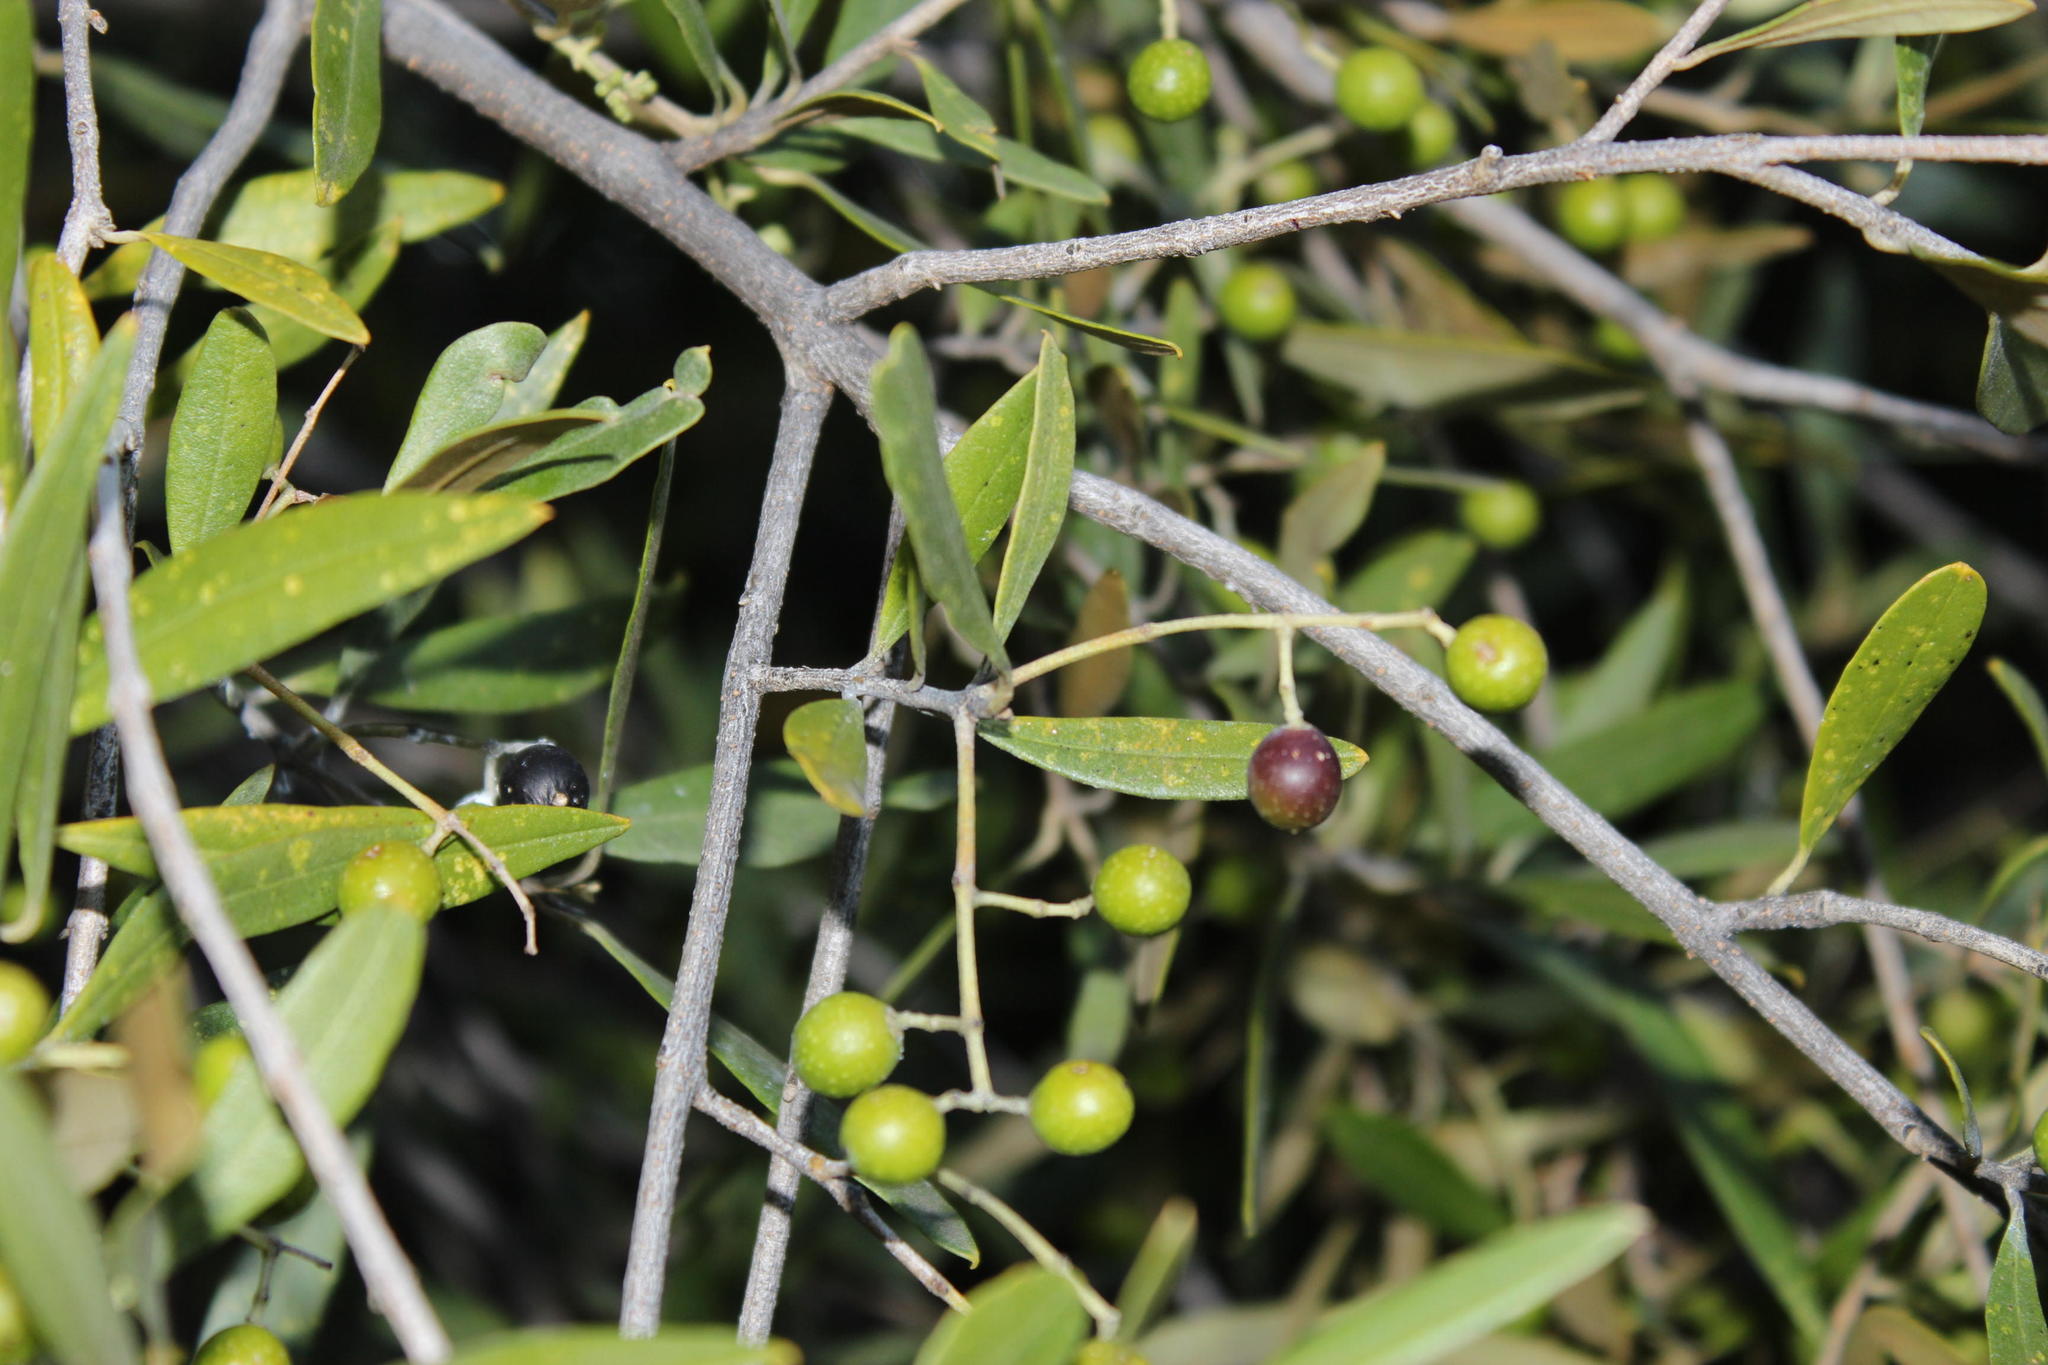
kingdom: Plantae
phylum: Tracheophyta
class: Magnoliopsida
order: Lamiales
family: Oleaceae
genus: Olea
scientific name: Olea europaea
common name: Olive
